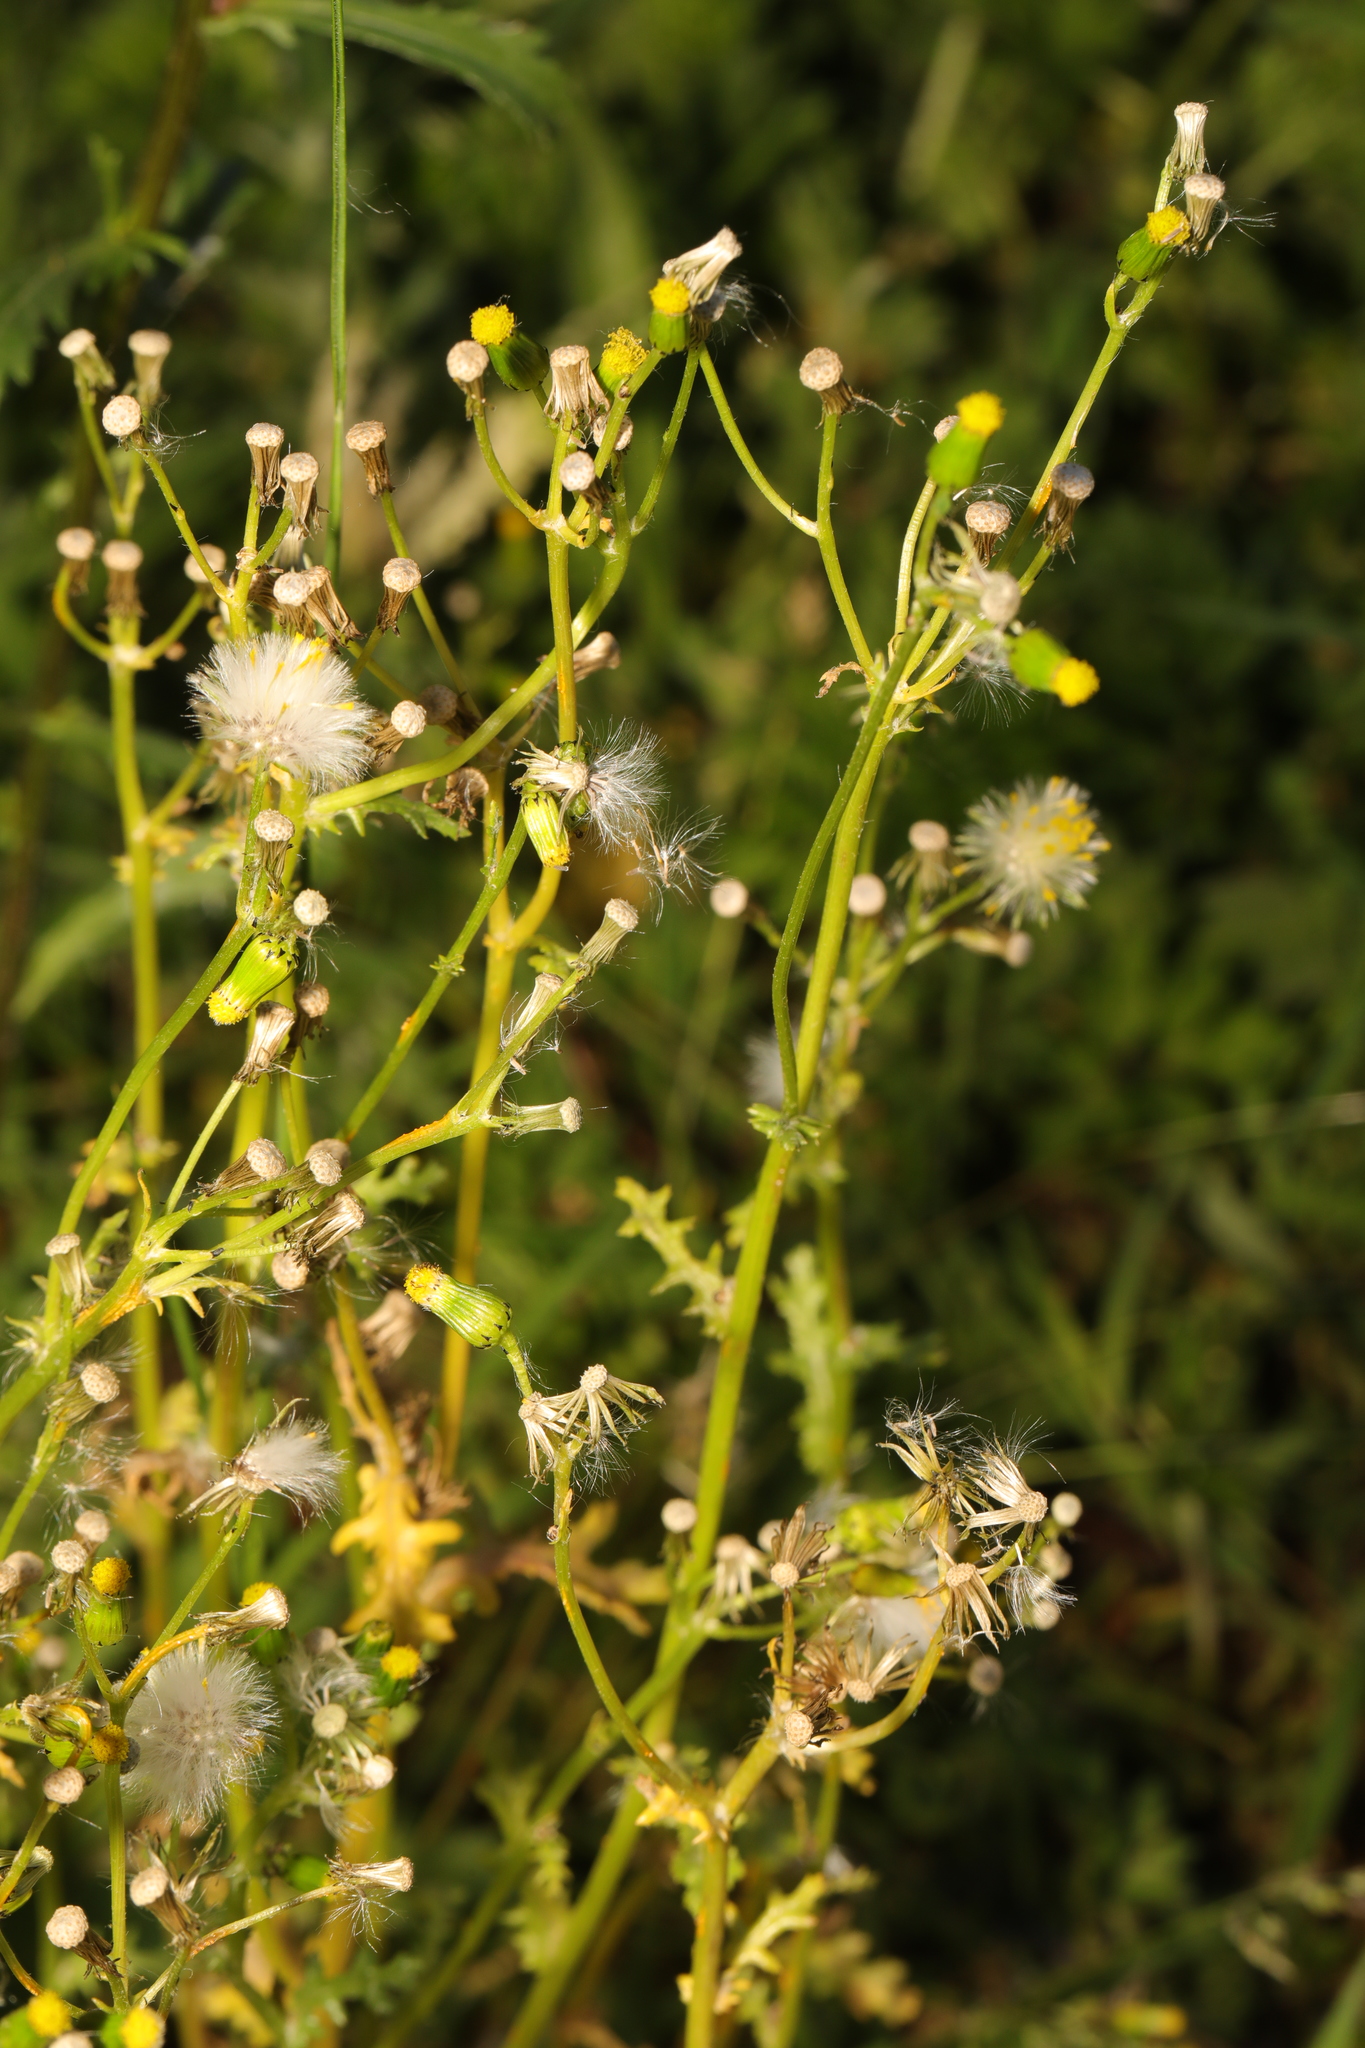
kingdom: Plantae
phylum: Tracheophyta
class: Magnoliopsida
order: Asterales
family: Asteraceae
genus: Senecio
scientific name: Senecio vulgaris
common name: Old-man-in-the-spring
